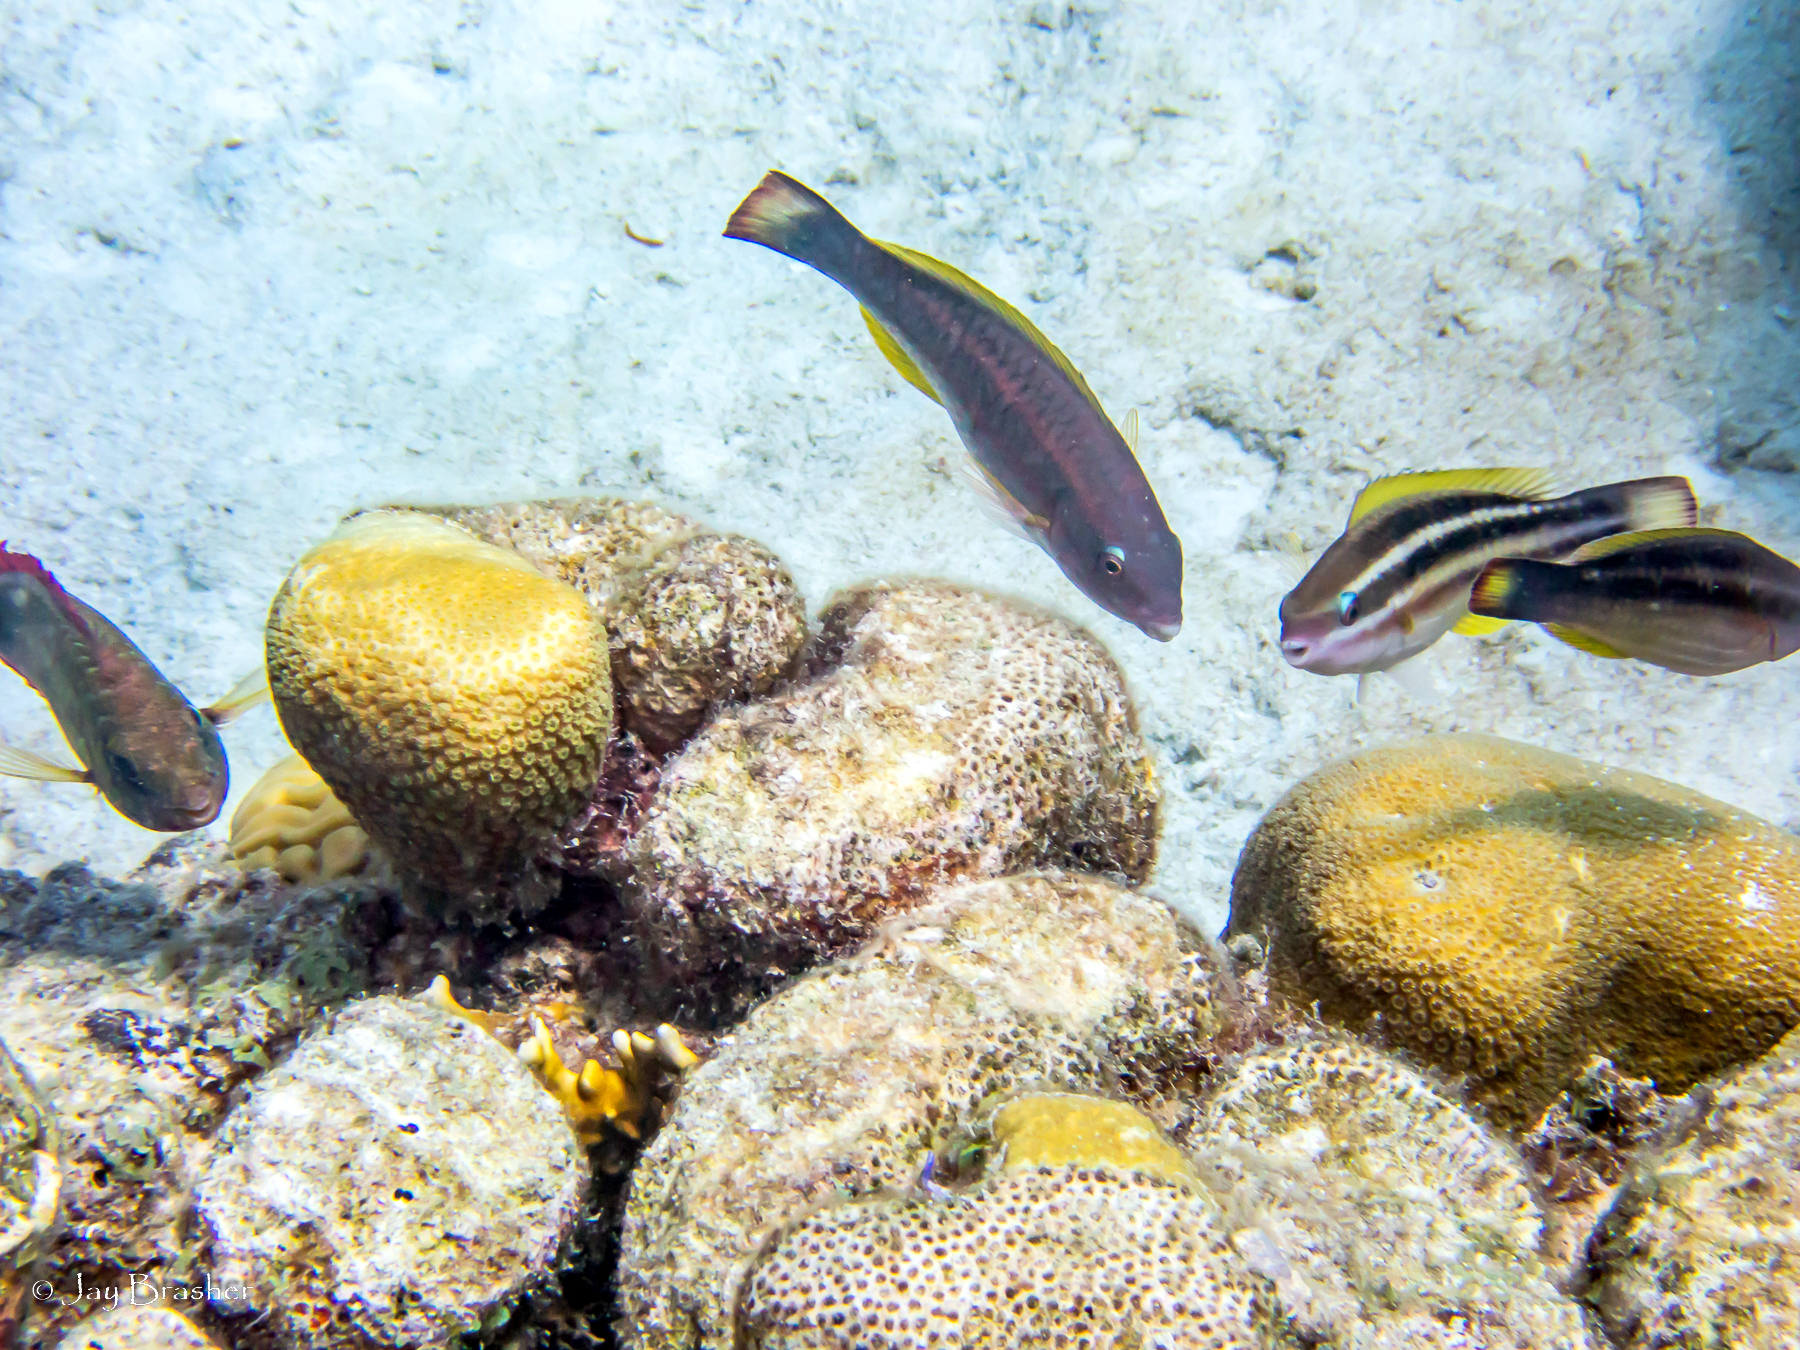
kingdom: Animalia
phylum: Chordata
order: Perciformes
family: Scaridae
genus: Sparisoma
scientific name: Sparisoma aurofrenatum
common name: Redband parrotfish
